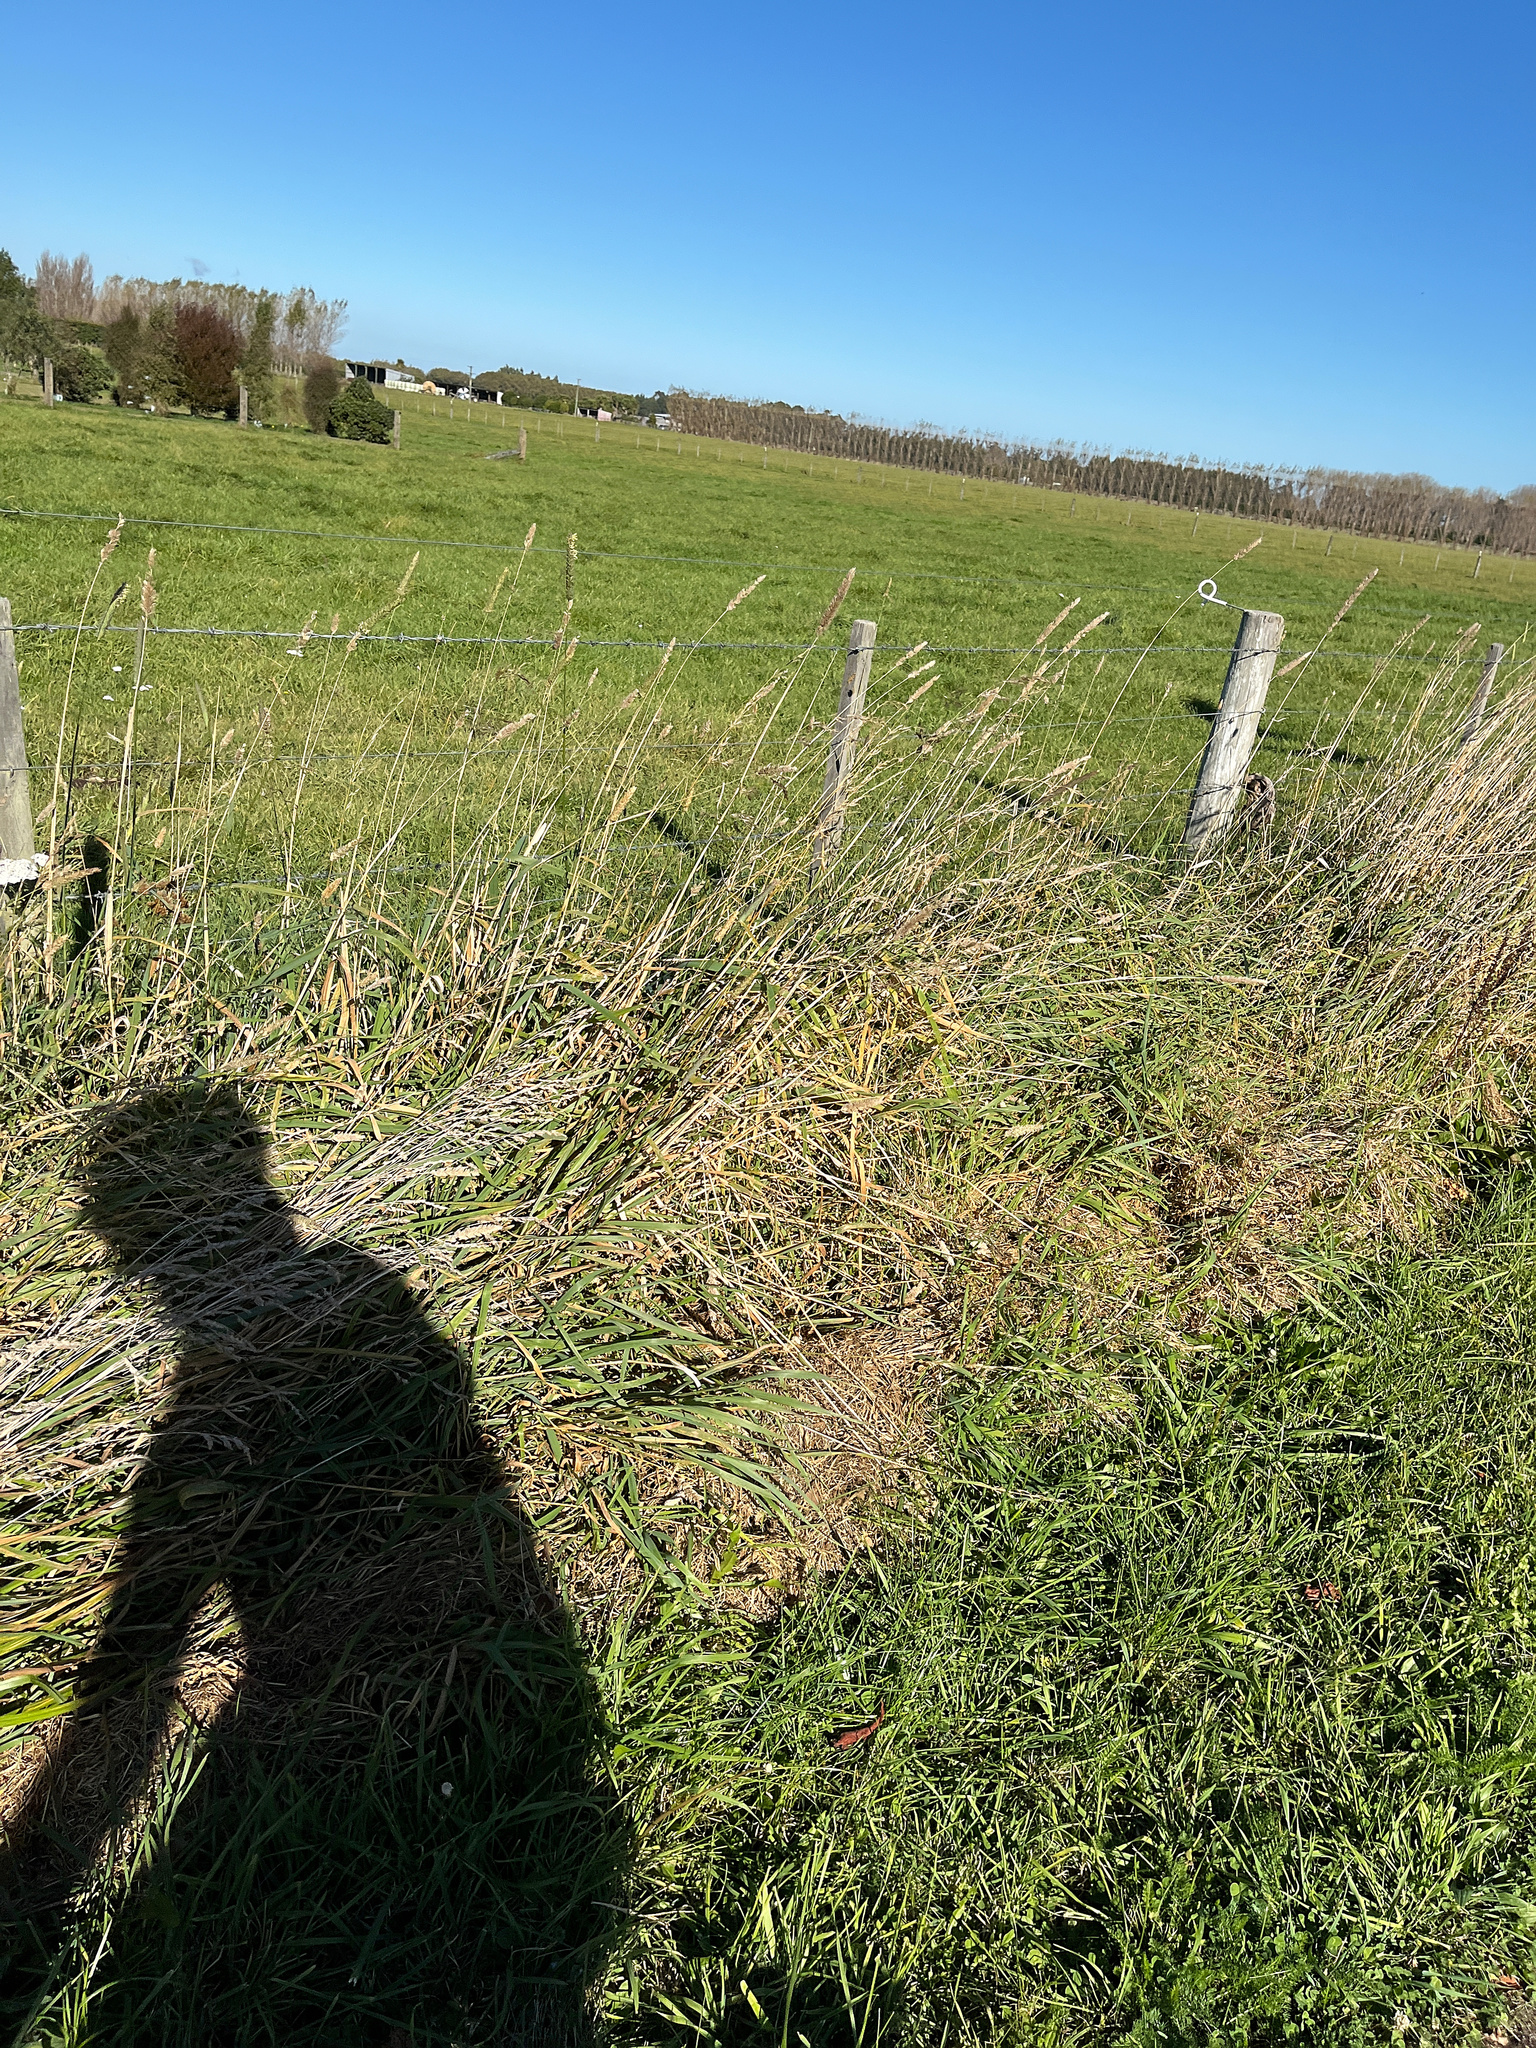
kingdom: Plantae
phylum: Tracheophyta
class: Liliopsida
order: Poales
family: Poaceae
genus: Phleum
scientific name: Phleum pratense
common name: Timothy grass
